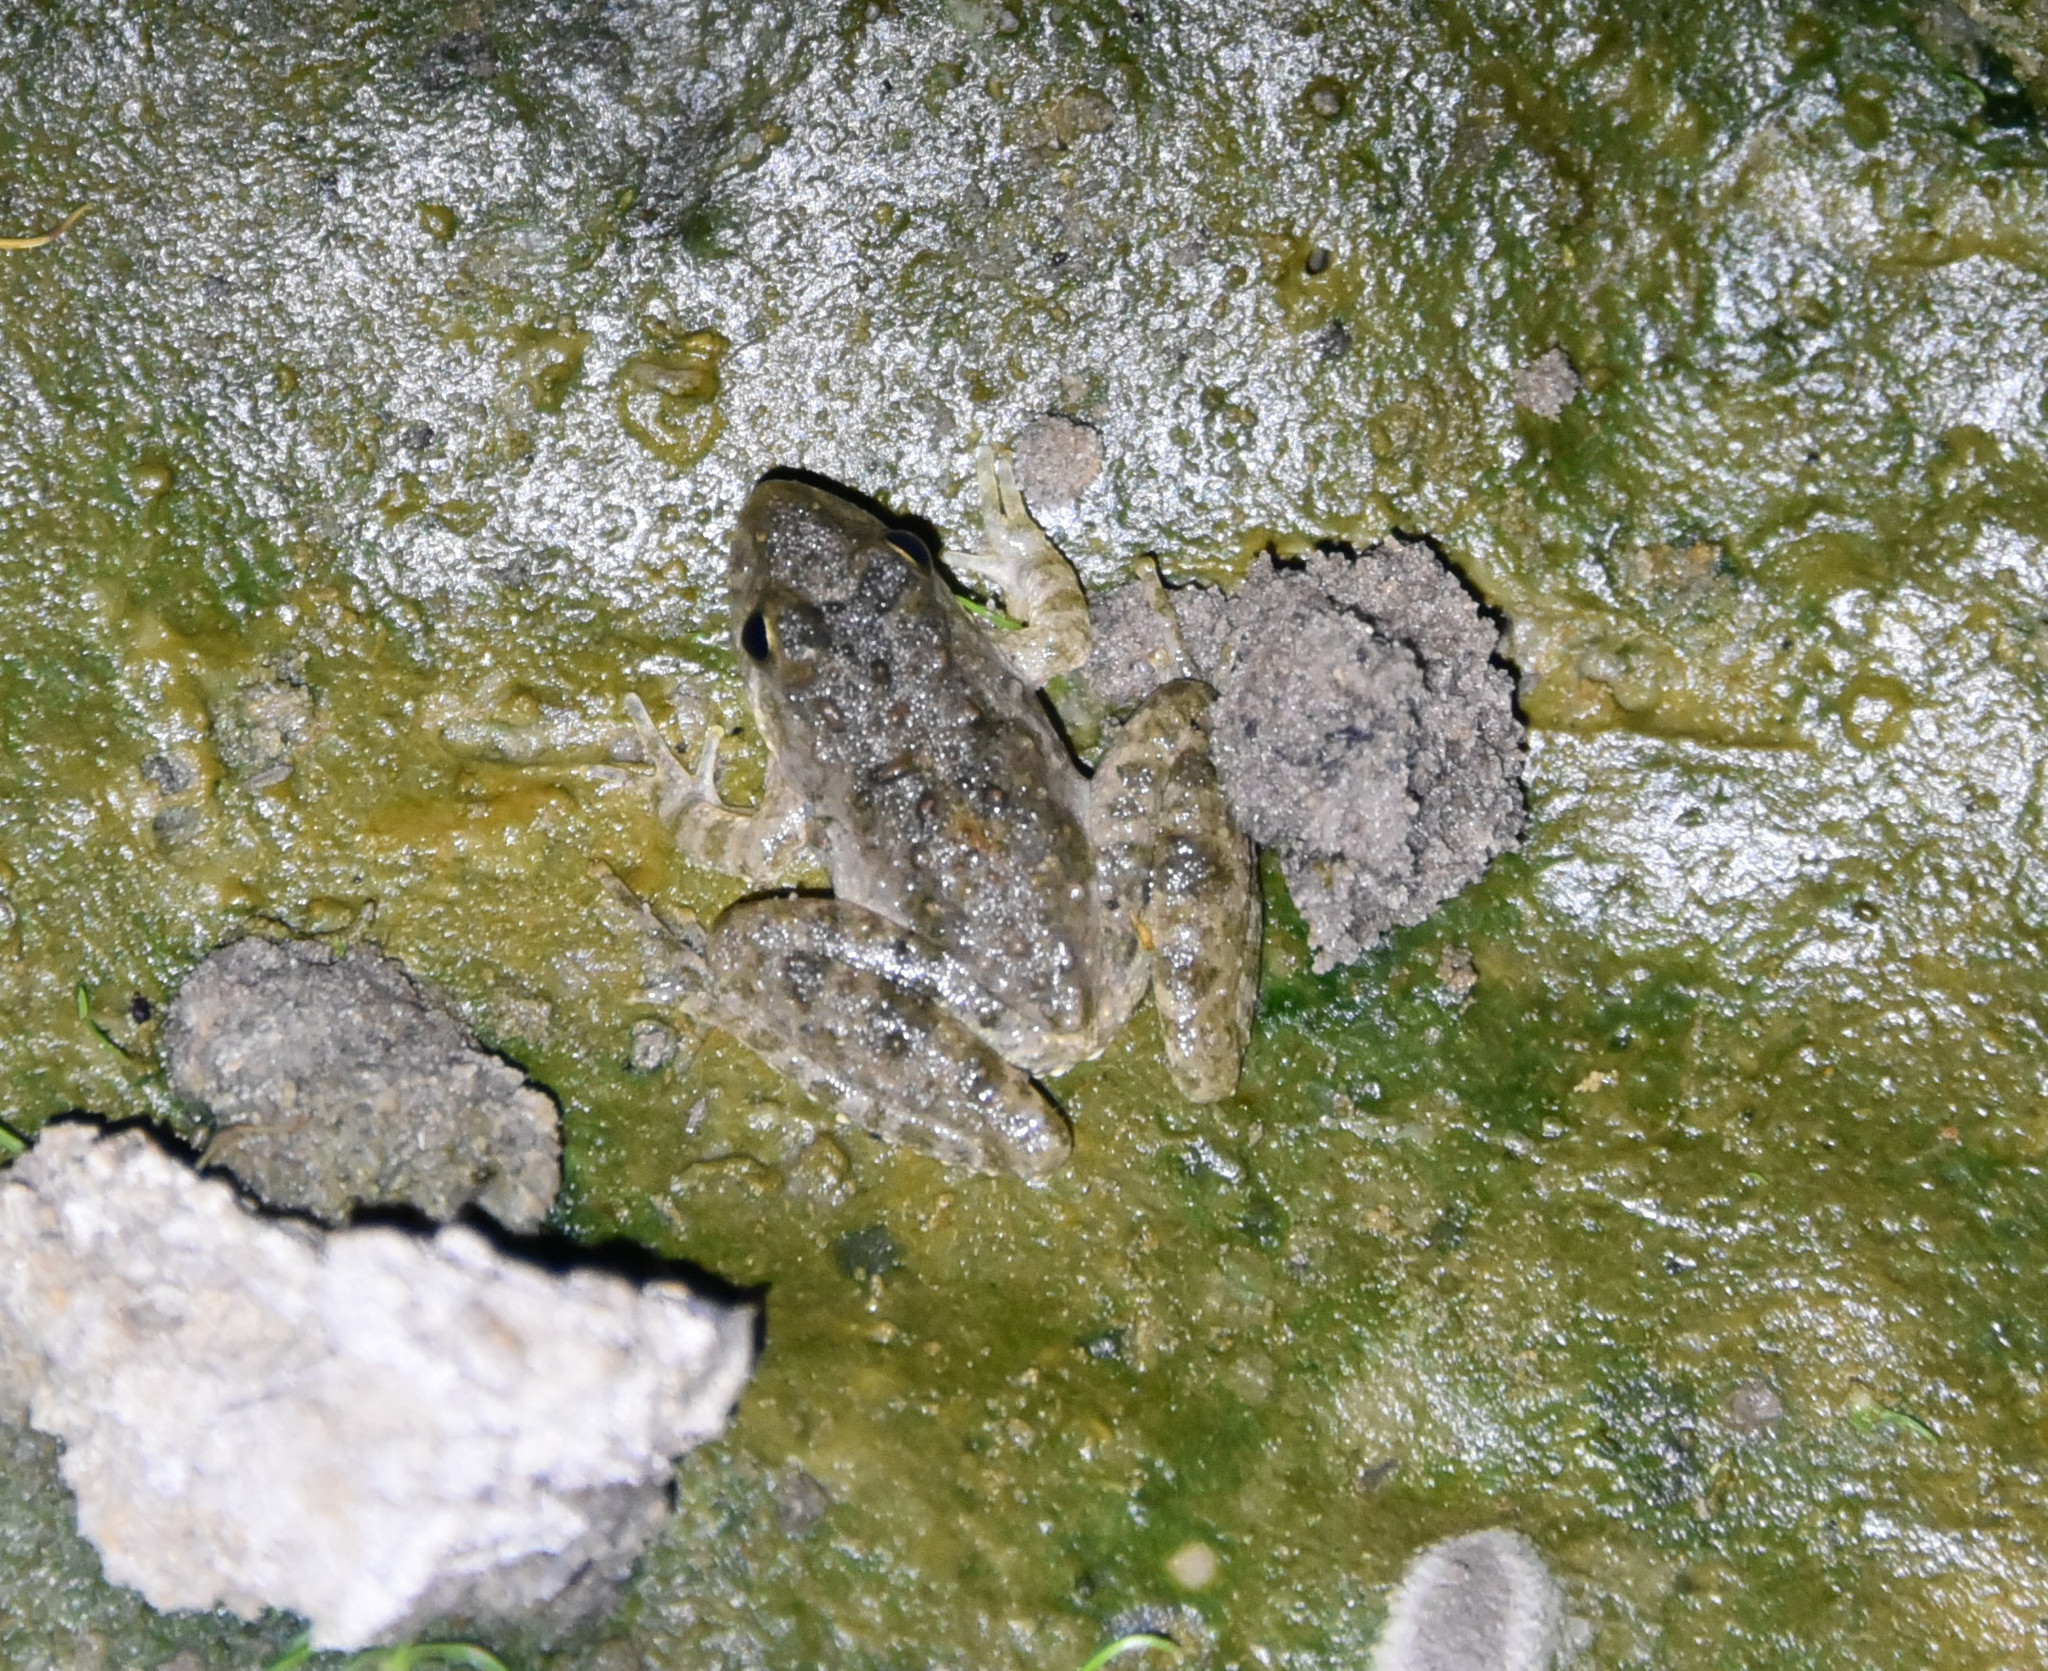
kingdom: Animalia
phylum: Chordata
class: Amphibia
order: Anura
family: Hylidae
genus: Acris
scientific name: Acris blanchardi
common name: Blanchard's cricket frog
